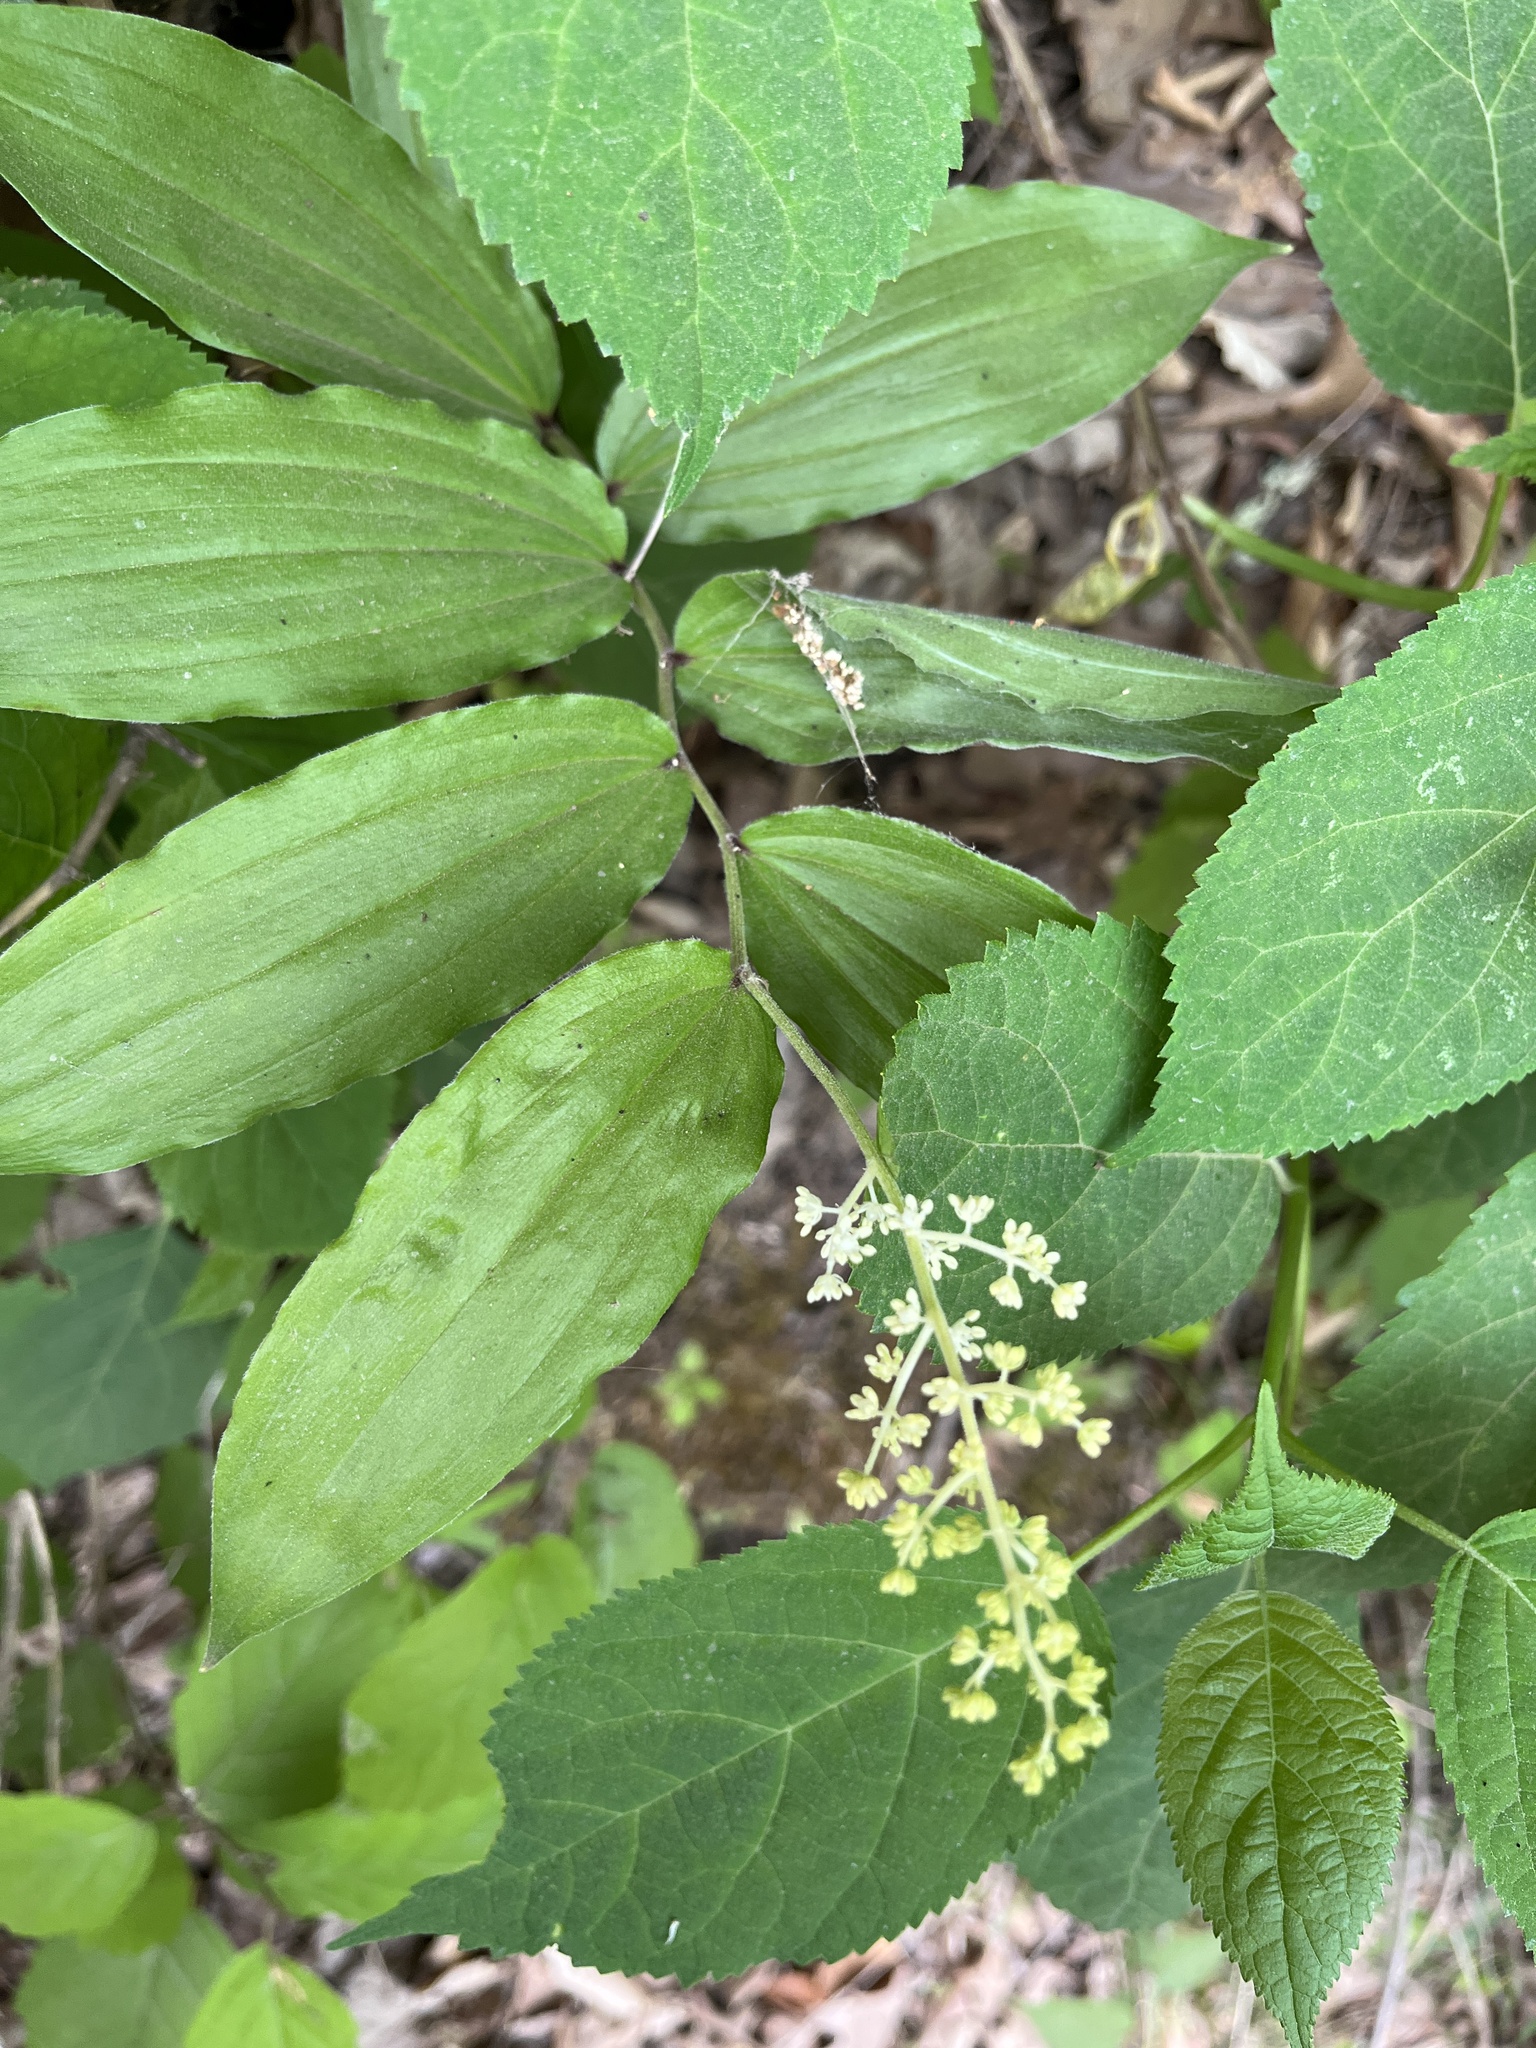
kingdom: Plantae
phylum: Tracheophyta
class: Liliopsida
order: Asparagales
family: Asparagaceae
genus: Maianthemum
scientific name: Maianthemum racemosum
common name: False spikenard
